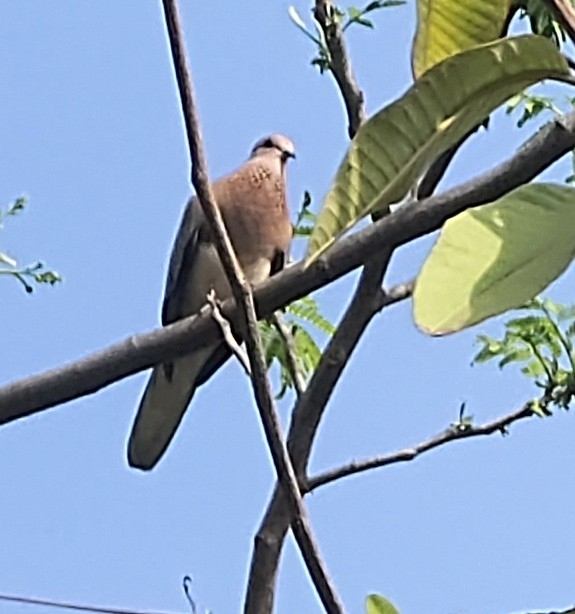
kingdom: Animalia
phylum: Chordata
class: Aves
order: Columbiformes
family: Columbidae
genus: Spilopelia
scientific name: Spilopelia senegalensis
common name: Laughing dove
